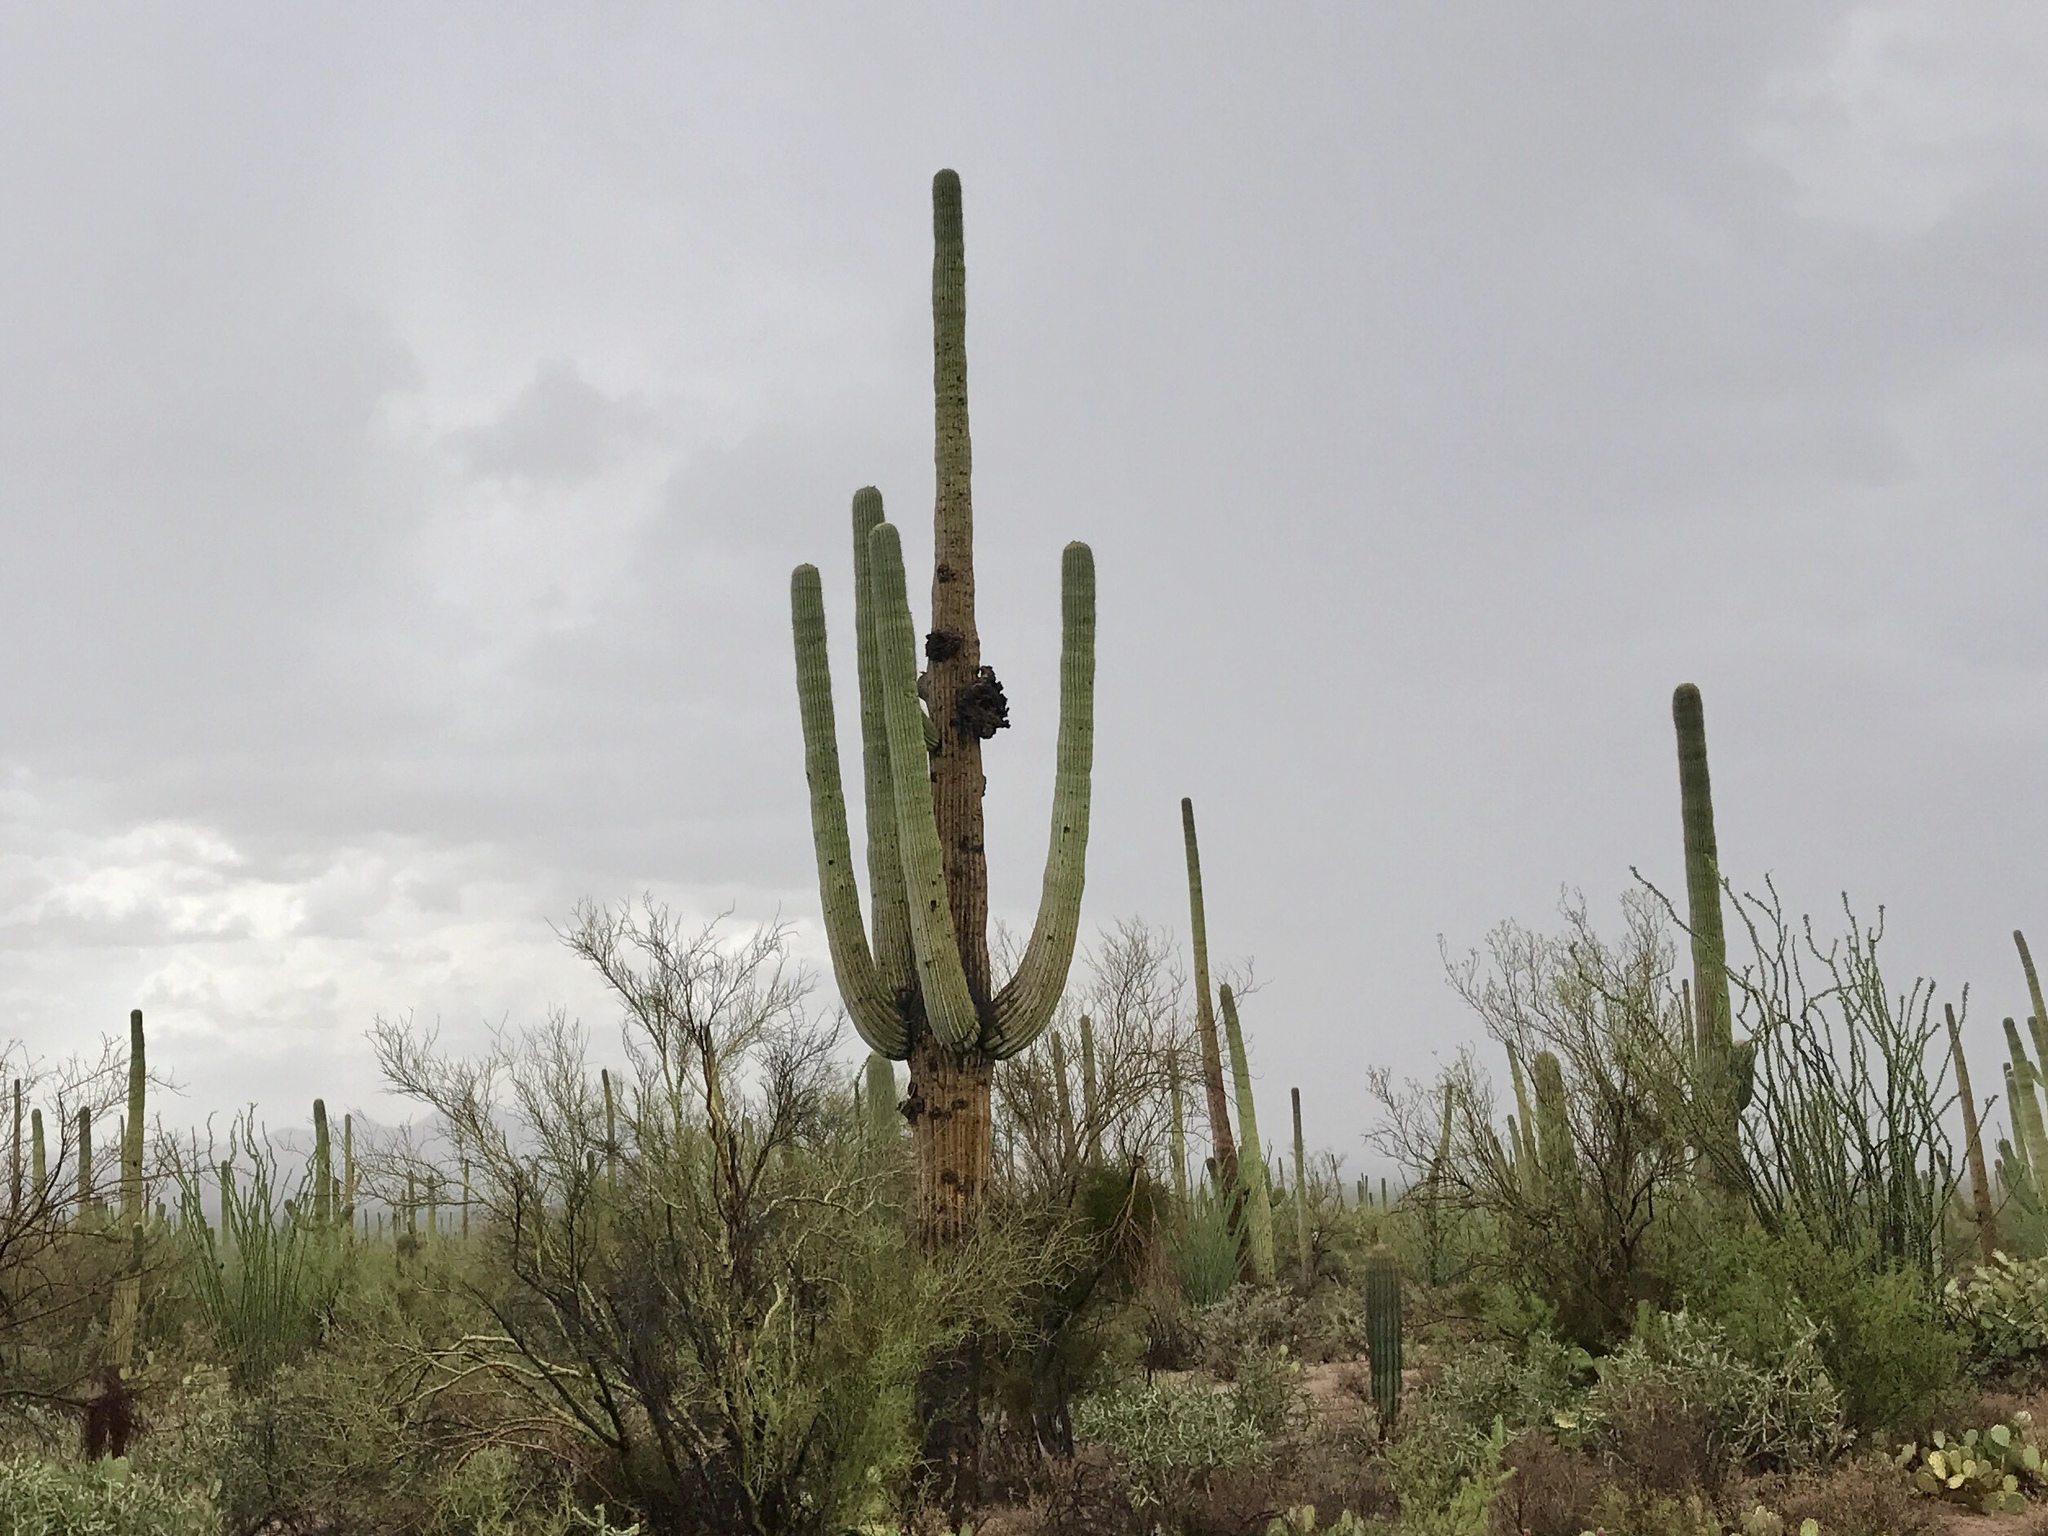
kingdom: Plantae
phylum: Tracheophyta
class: Magnoliopsida
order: Caryophyllales
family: Cactaceae
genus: Carnegiea
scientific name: Carnegiea gigantea
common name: Saguaro
